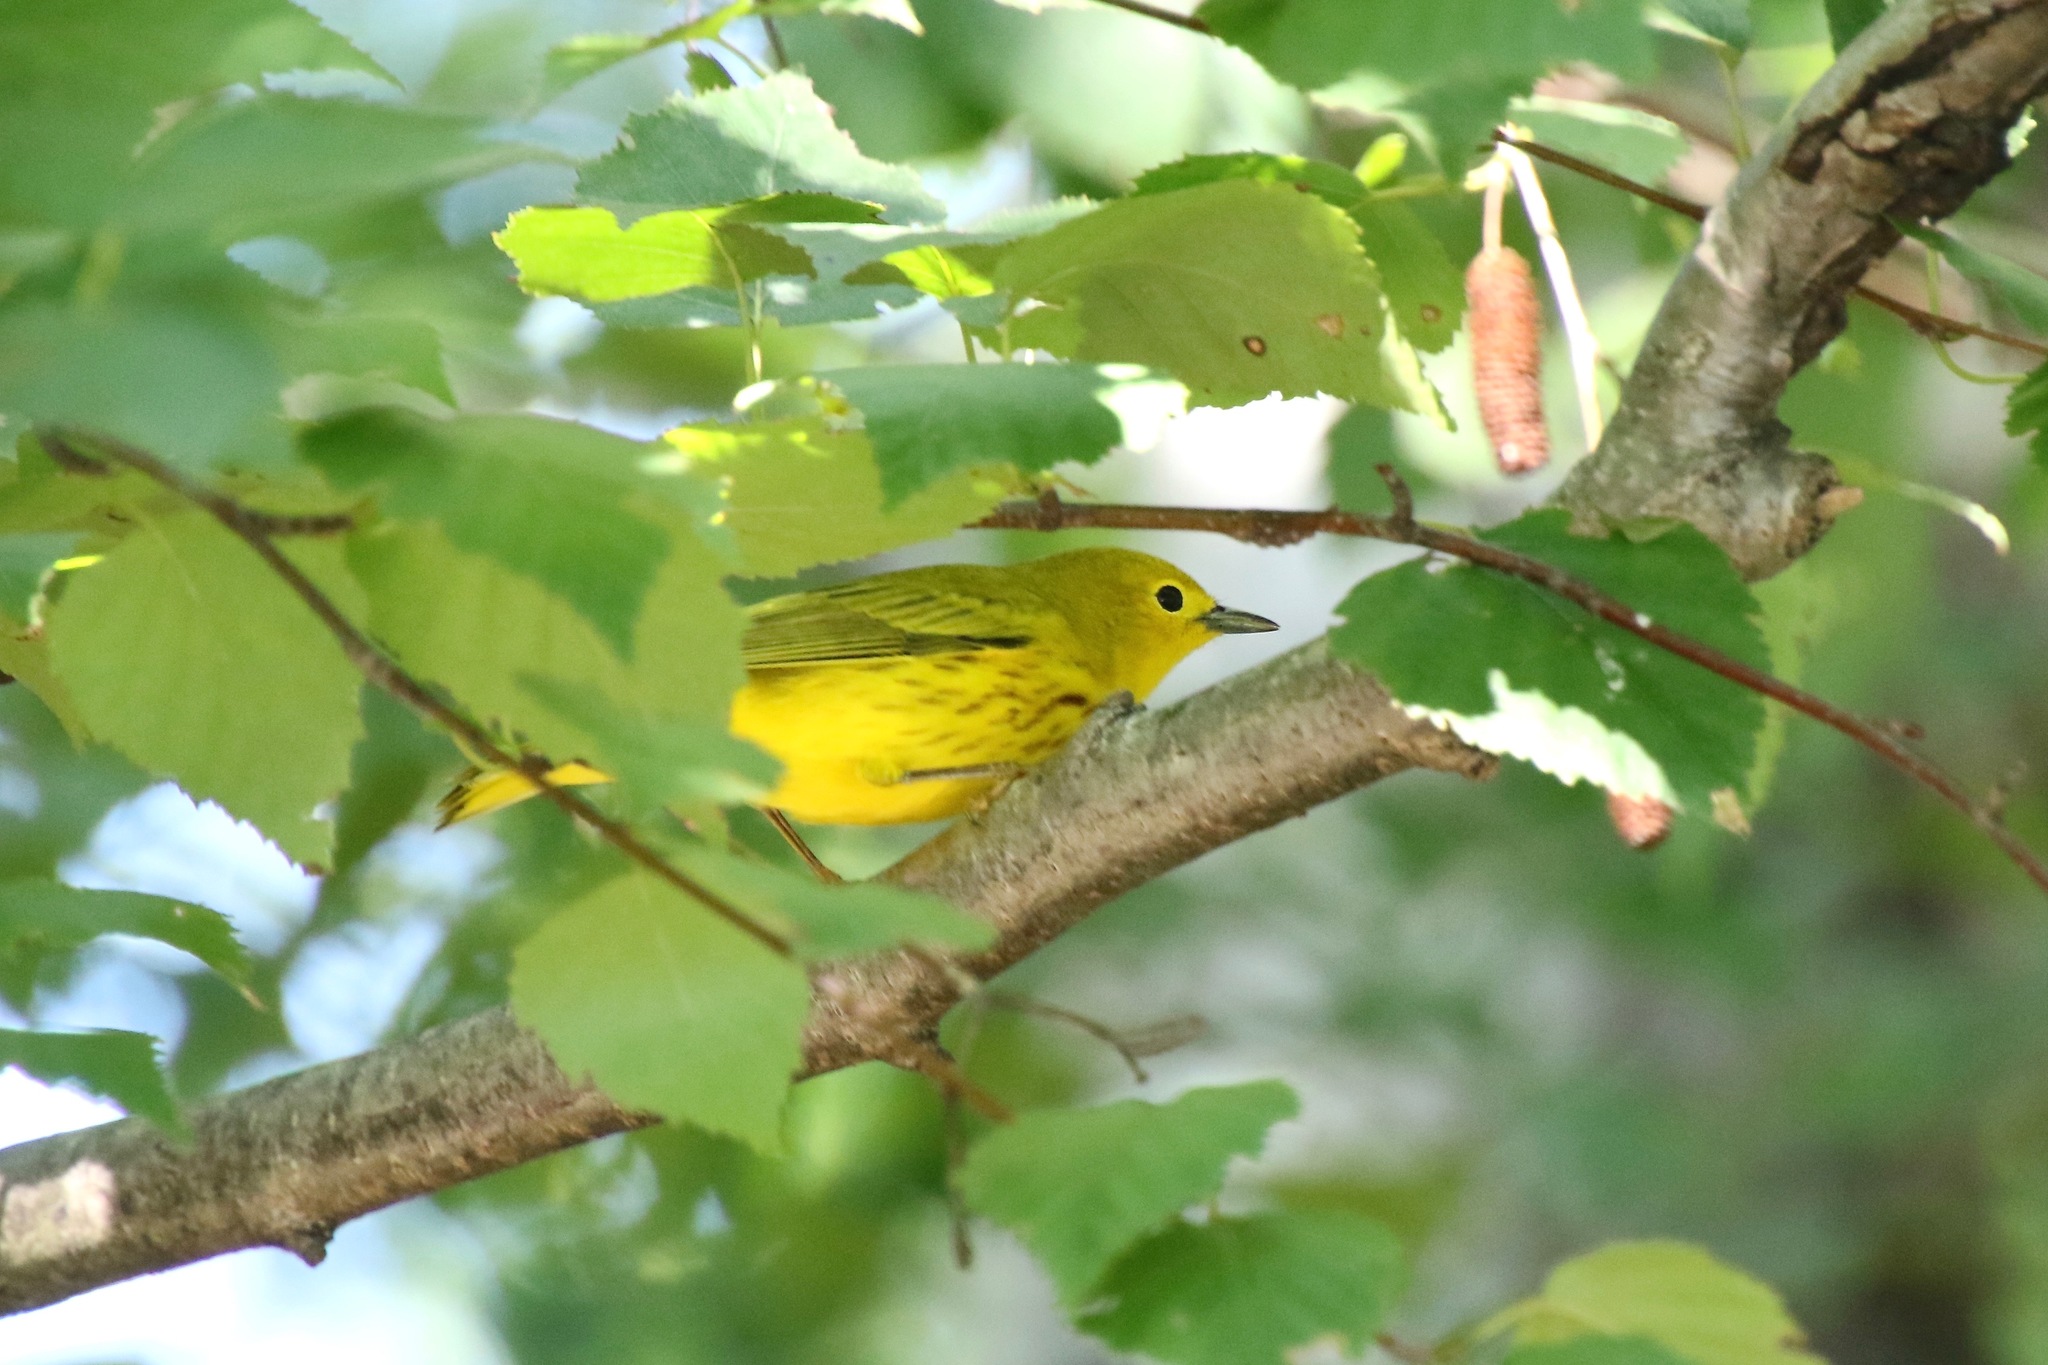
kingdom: Animalia
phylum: Chordata
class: Aves
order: Passeriformes
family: Parulidae
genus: Setophaga
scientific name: Setophaga petechia
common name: Yellow warbler
